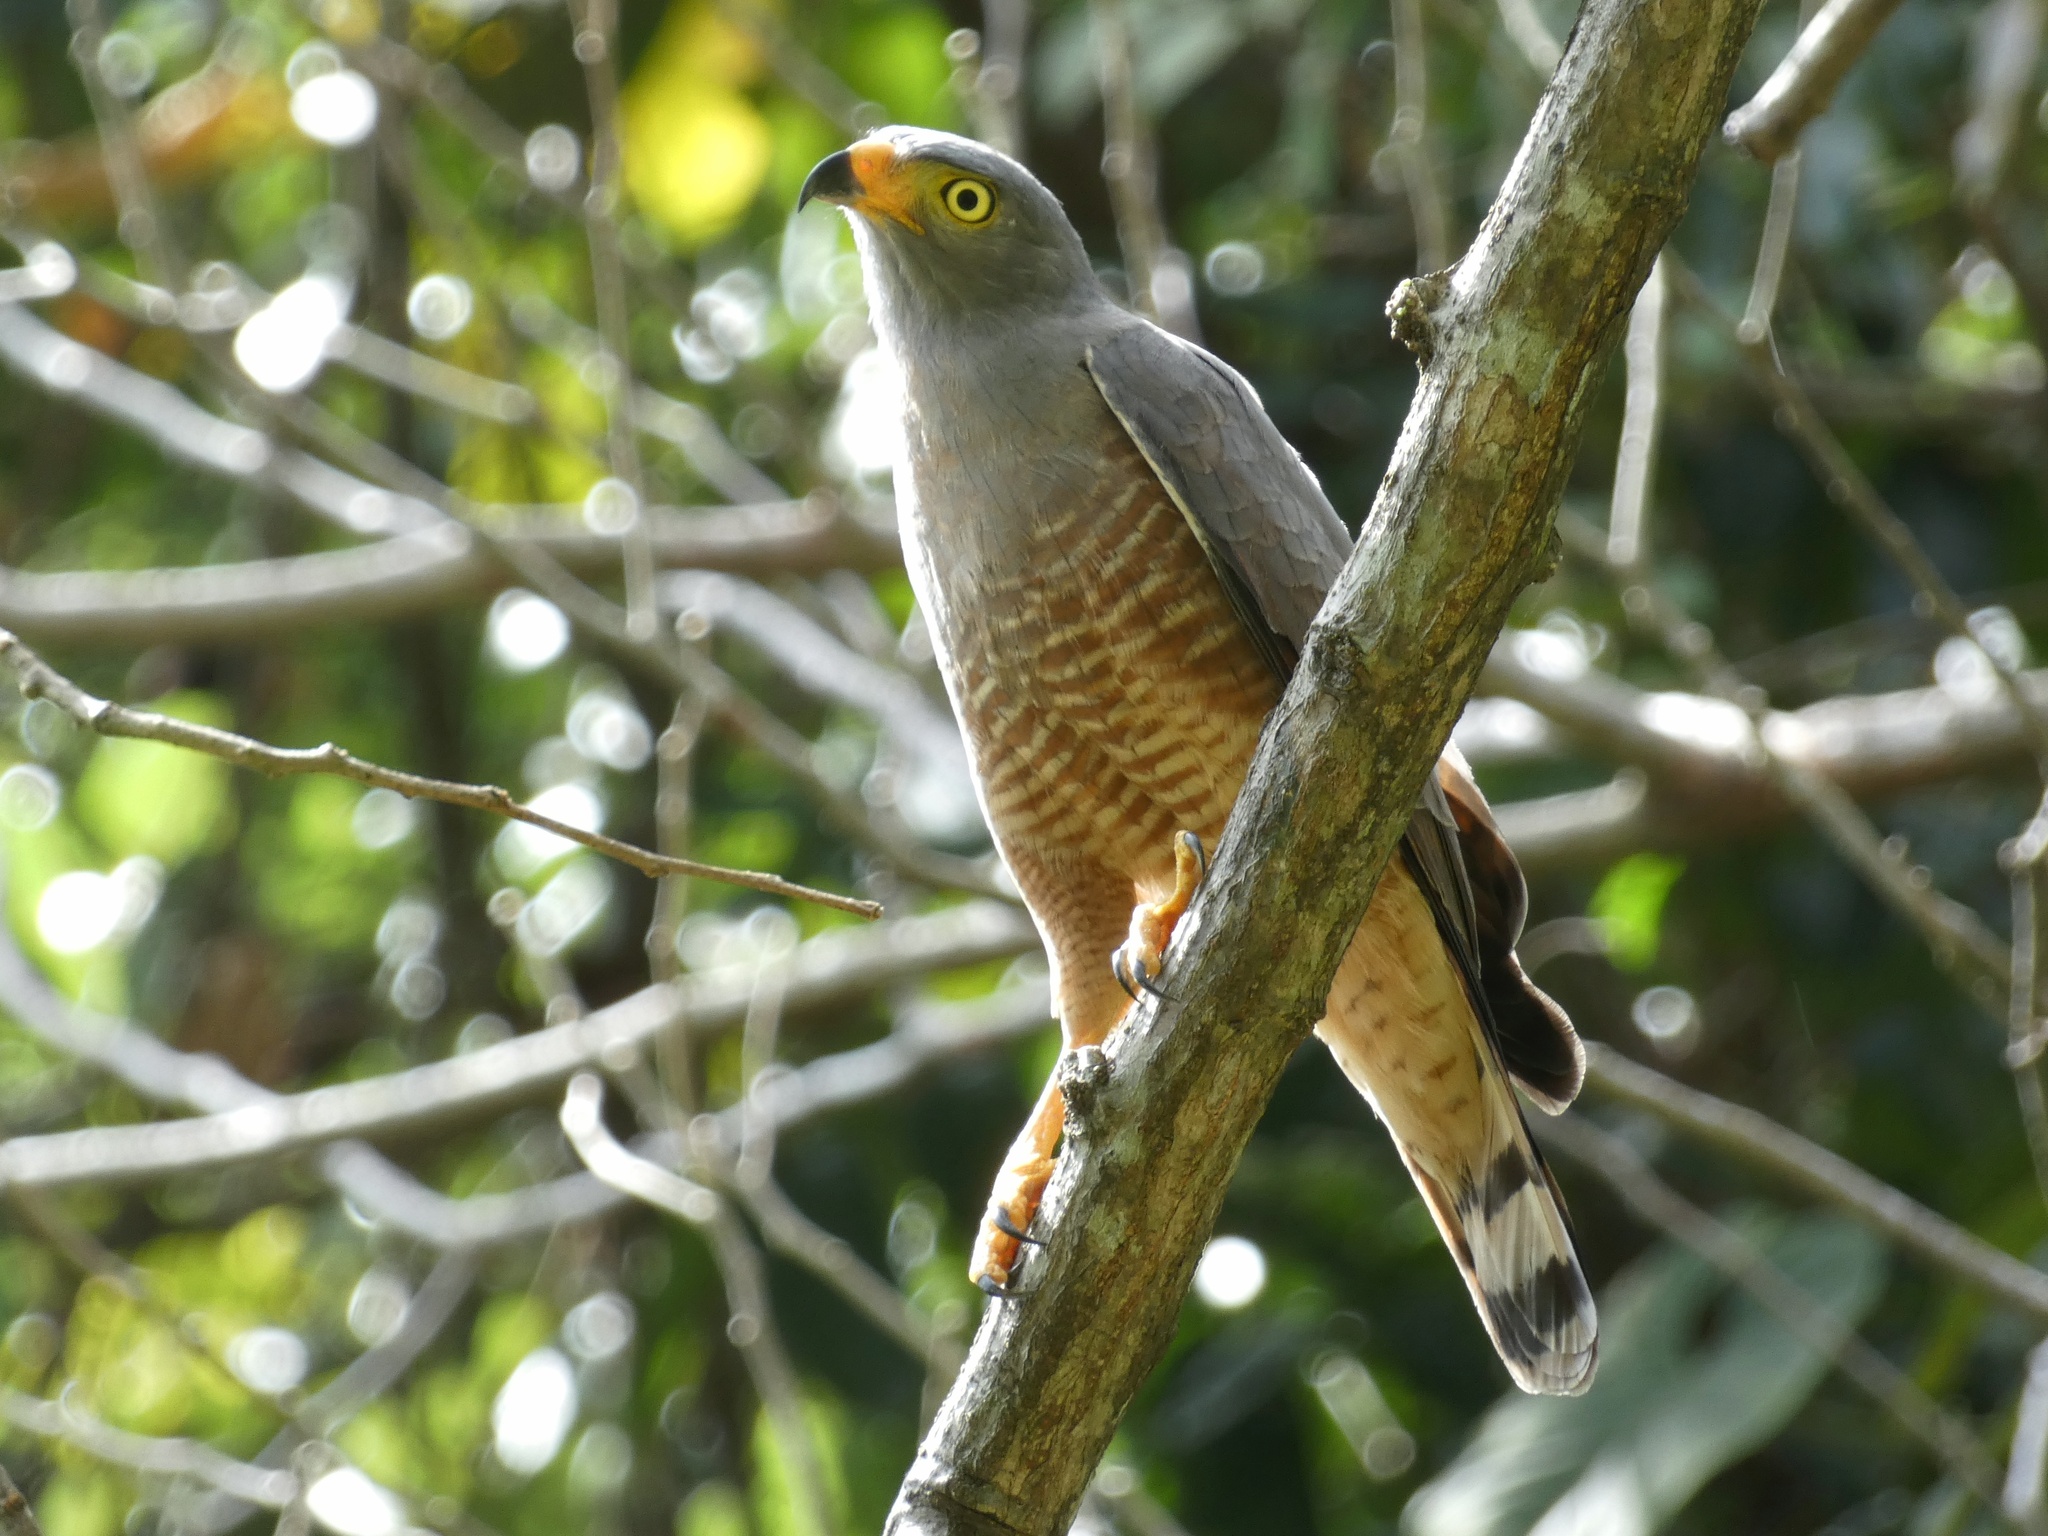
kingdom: Animalia
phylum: Chordata
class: Aves
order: Accipitriformes
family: Accipitridae
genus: Rupornis
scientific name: Rupornis magnirostris
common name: Roadside hawk
